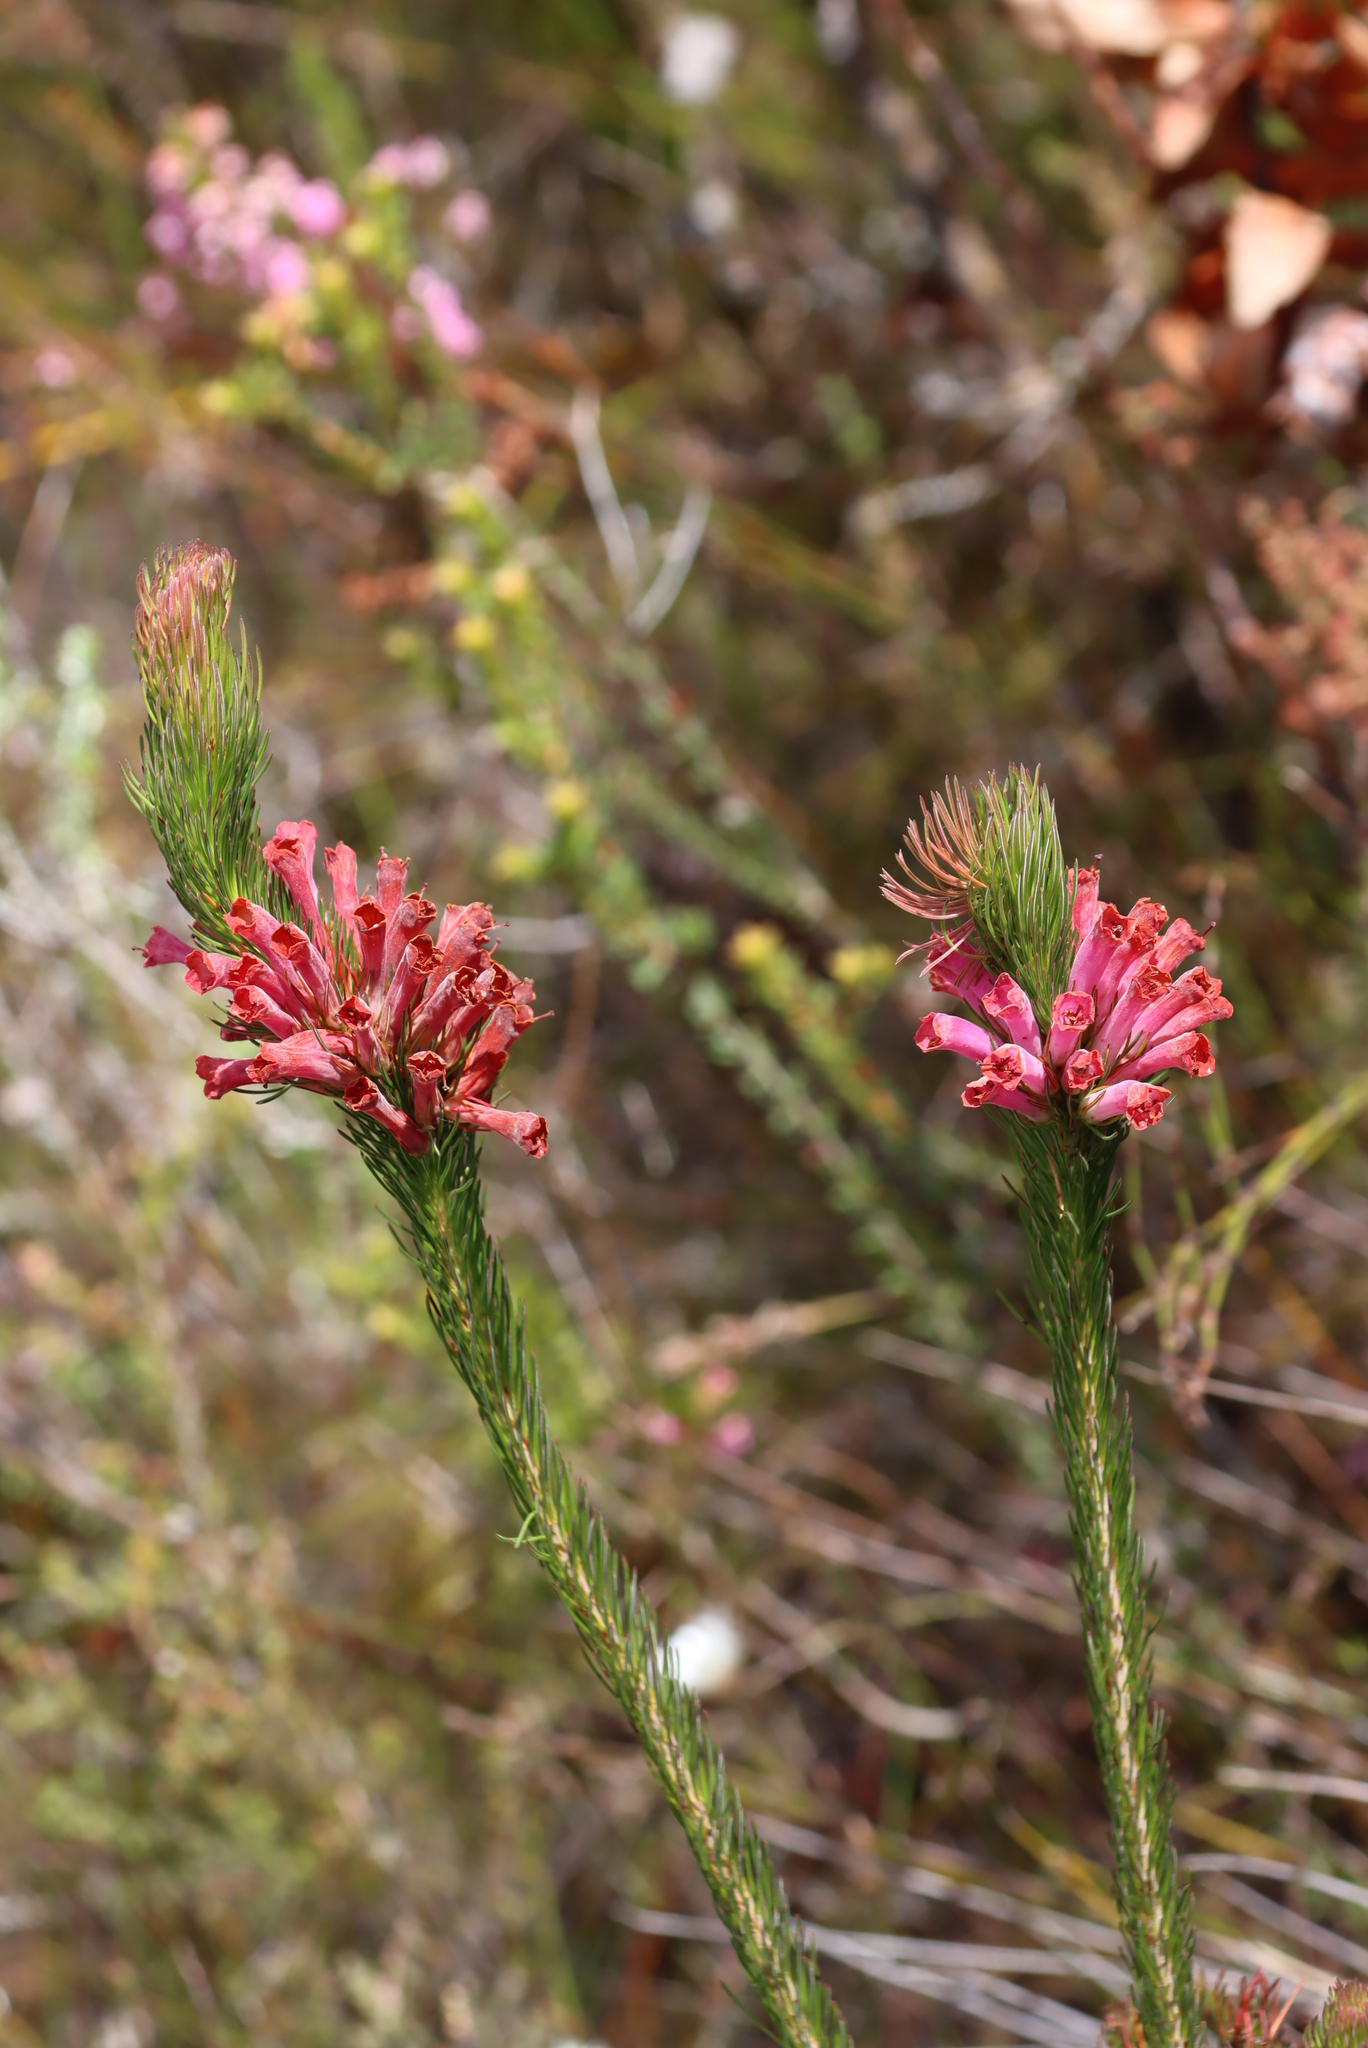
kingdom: Plantae
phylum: Tracheophyta
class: Magnoliopsida
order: Ericales
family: Ericaceae
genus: Erica
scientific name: Erica vestita
